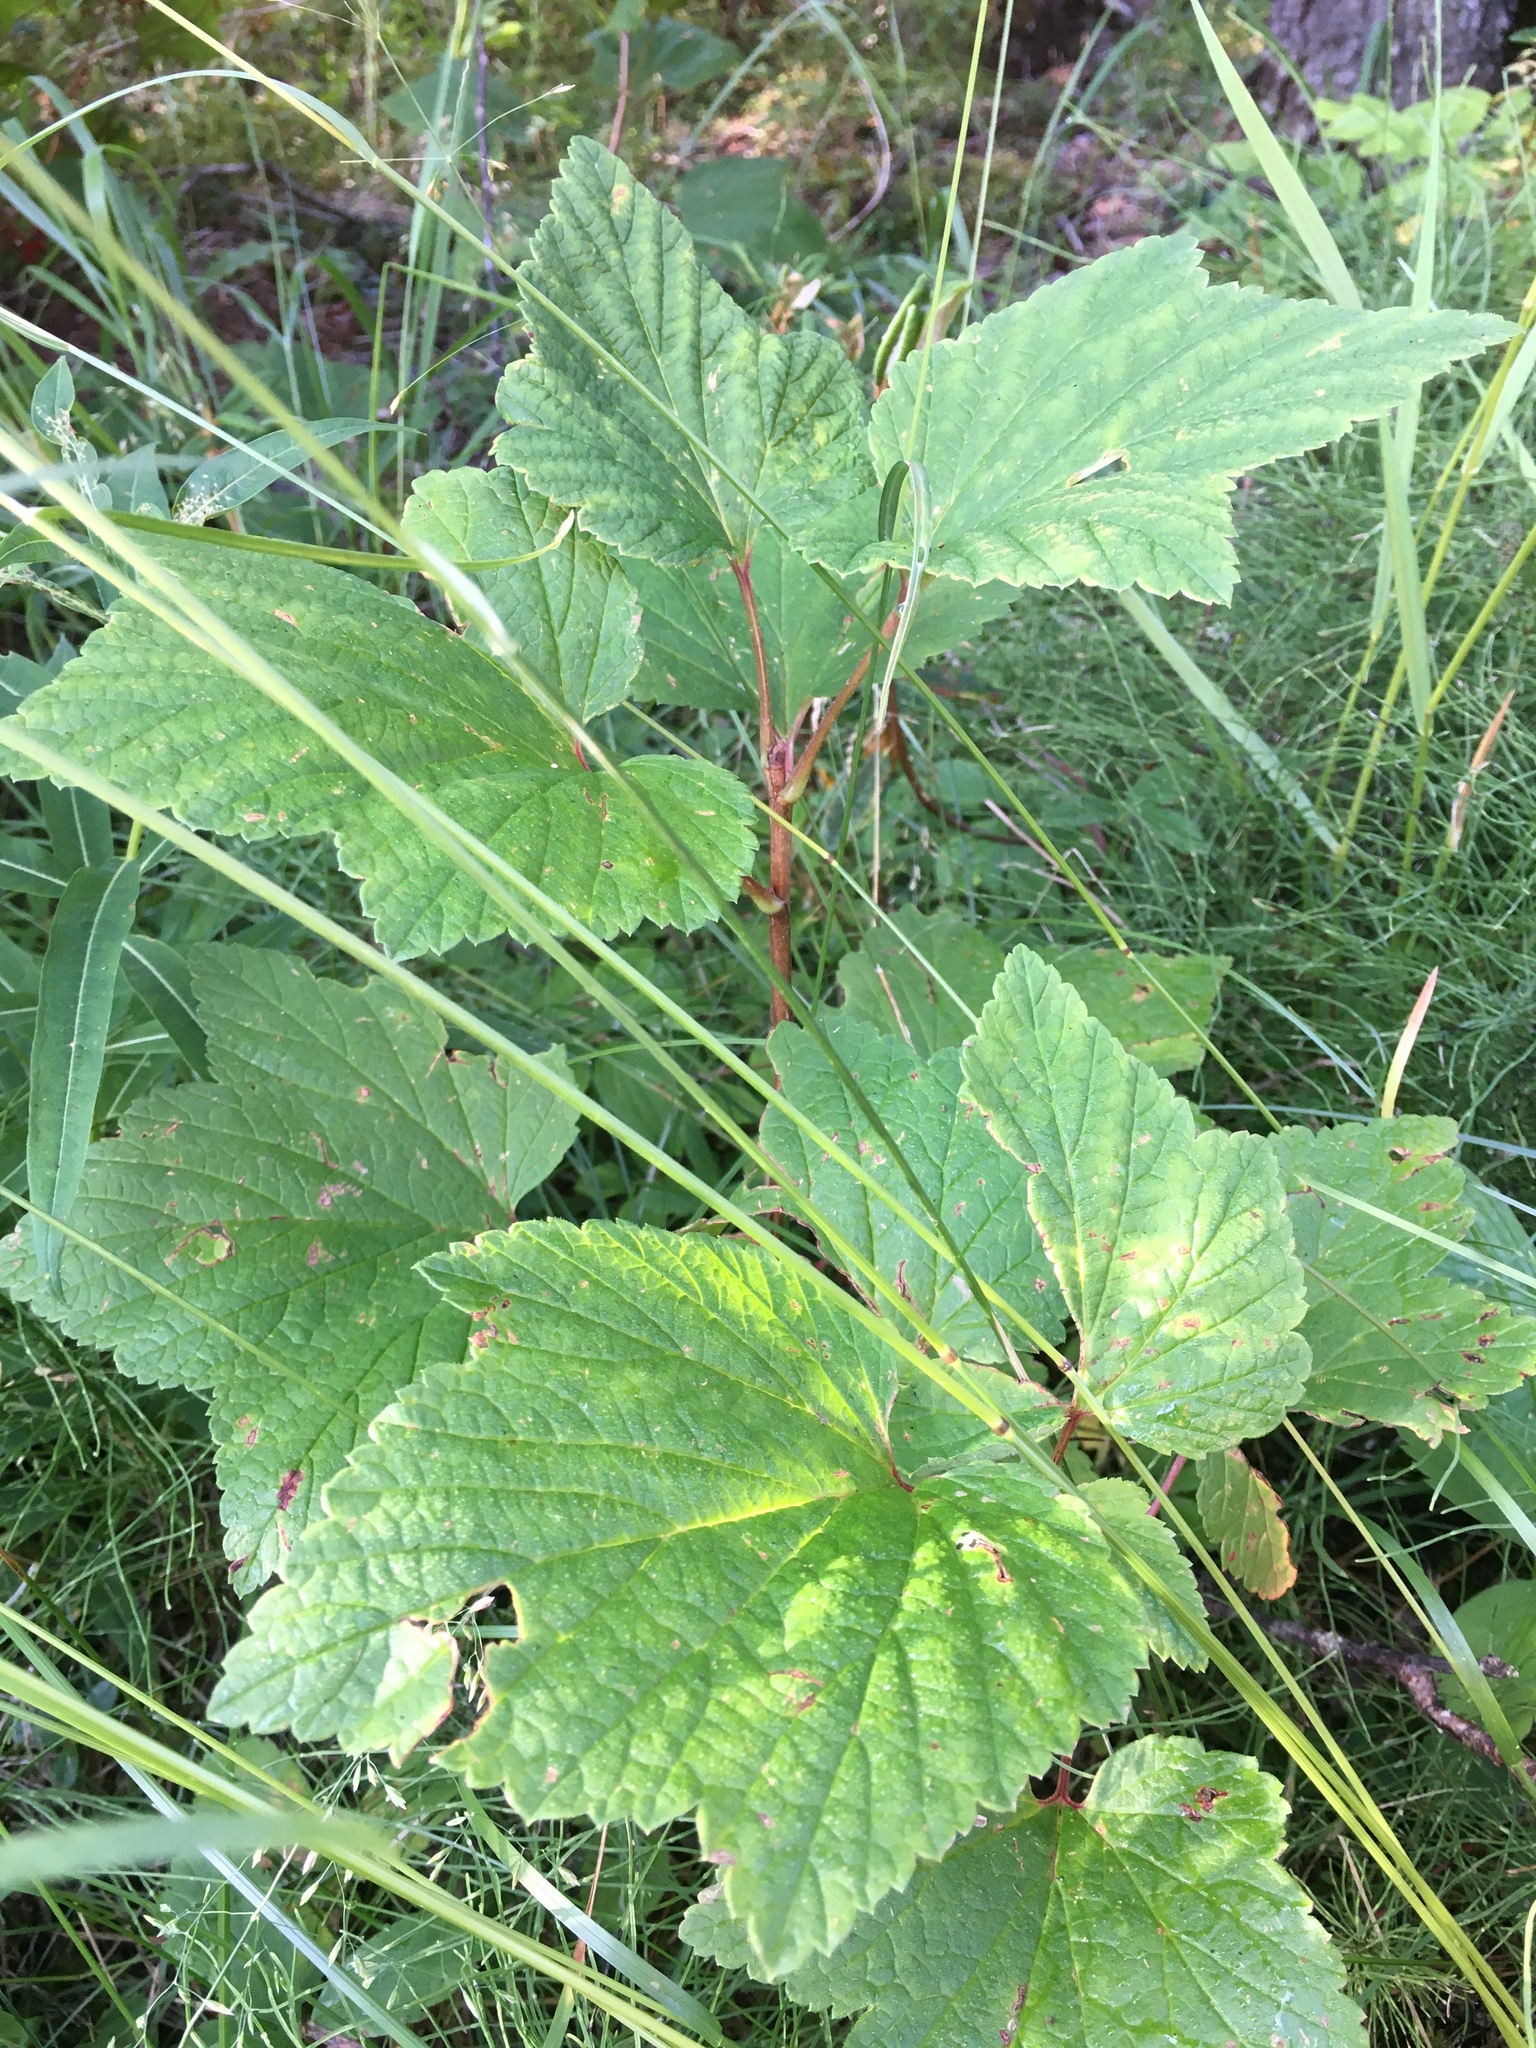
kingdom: Plantae
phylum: Tracheophyta
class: Magnoliopsida
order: Dipsacales
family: Viburnaceae
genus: Viburnum
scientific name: Viburnum edule
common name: Mooseberry
